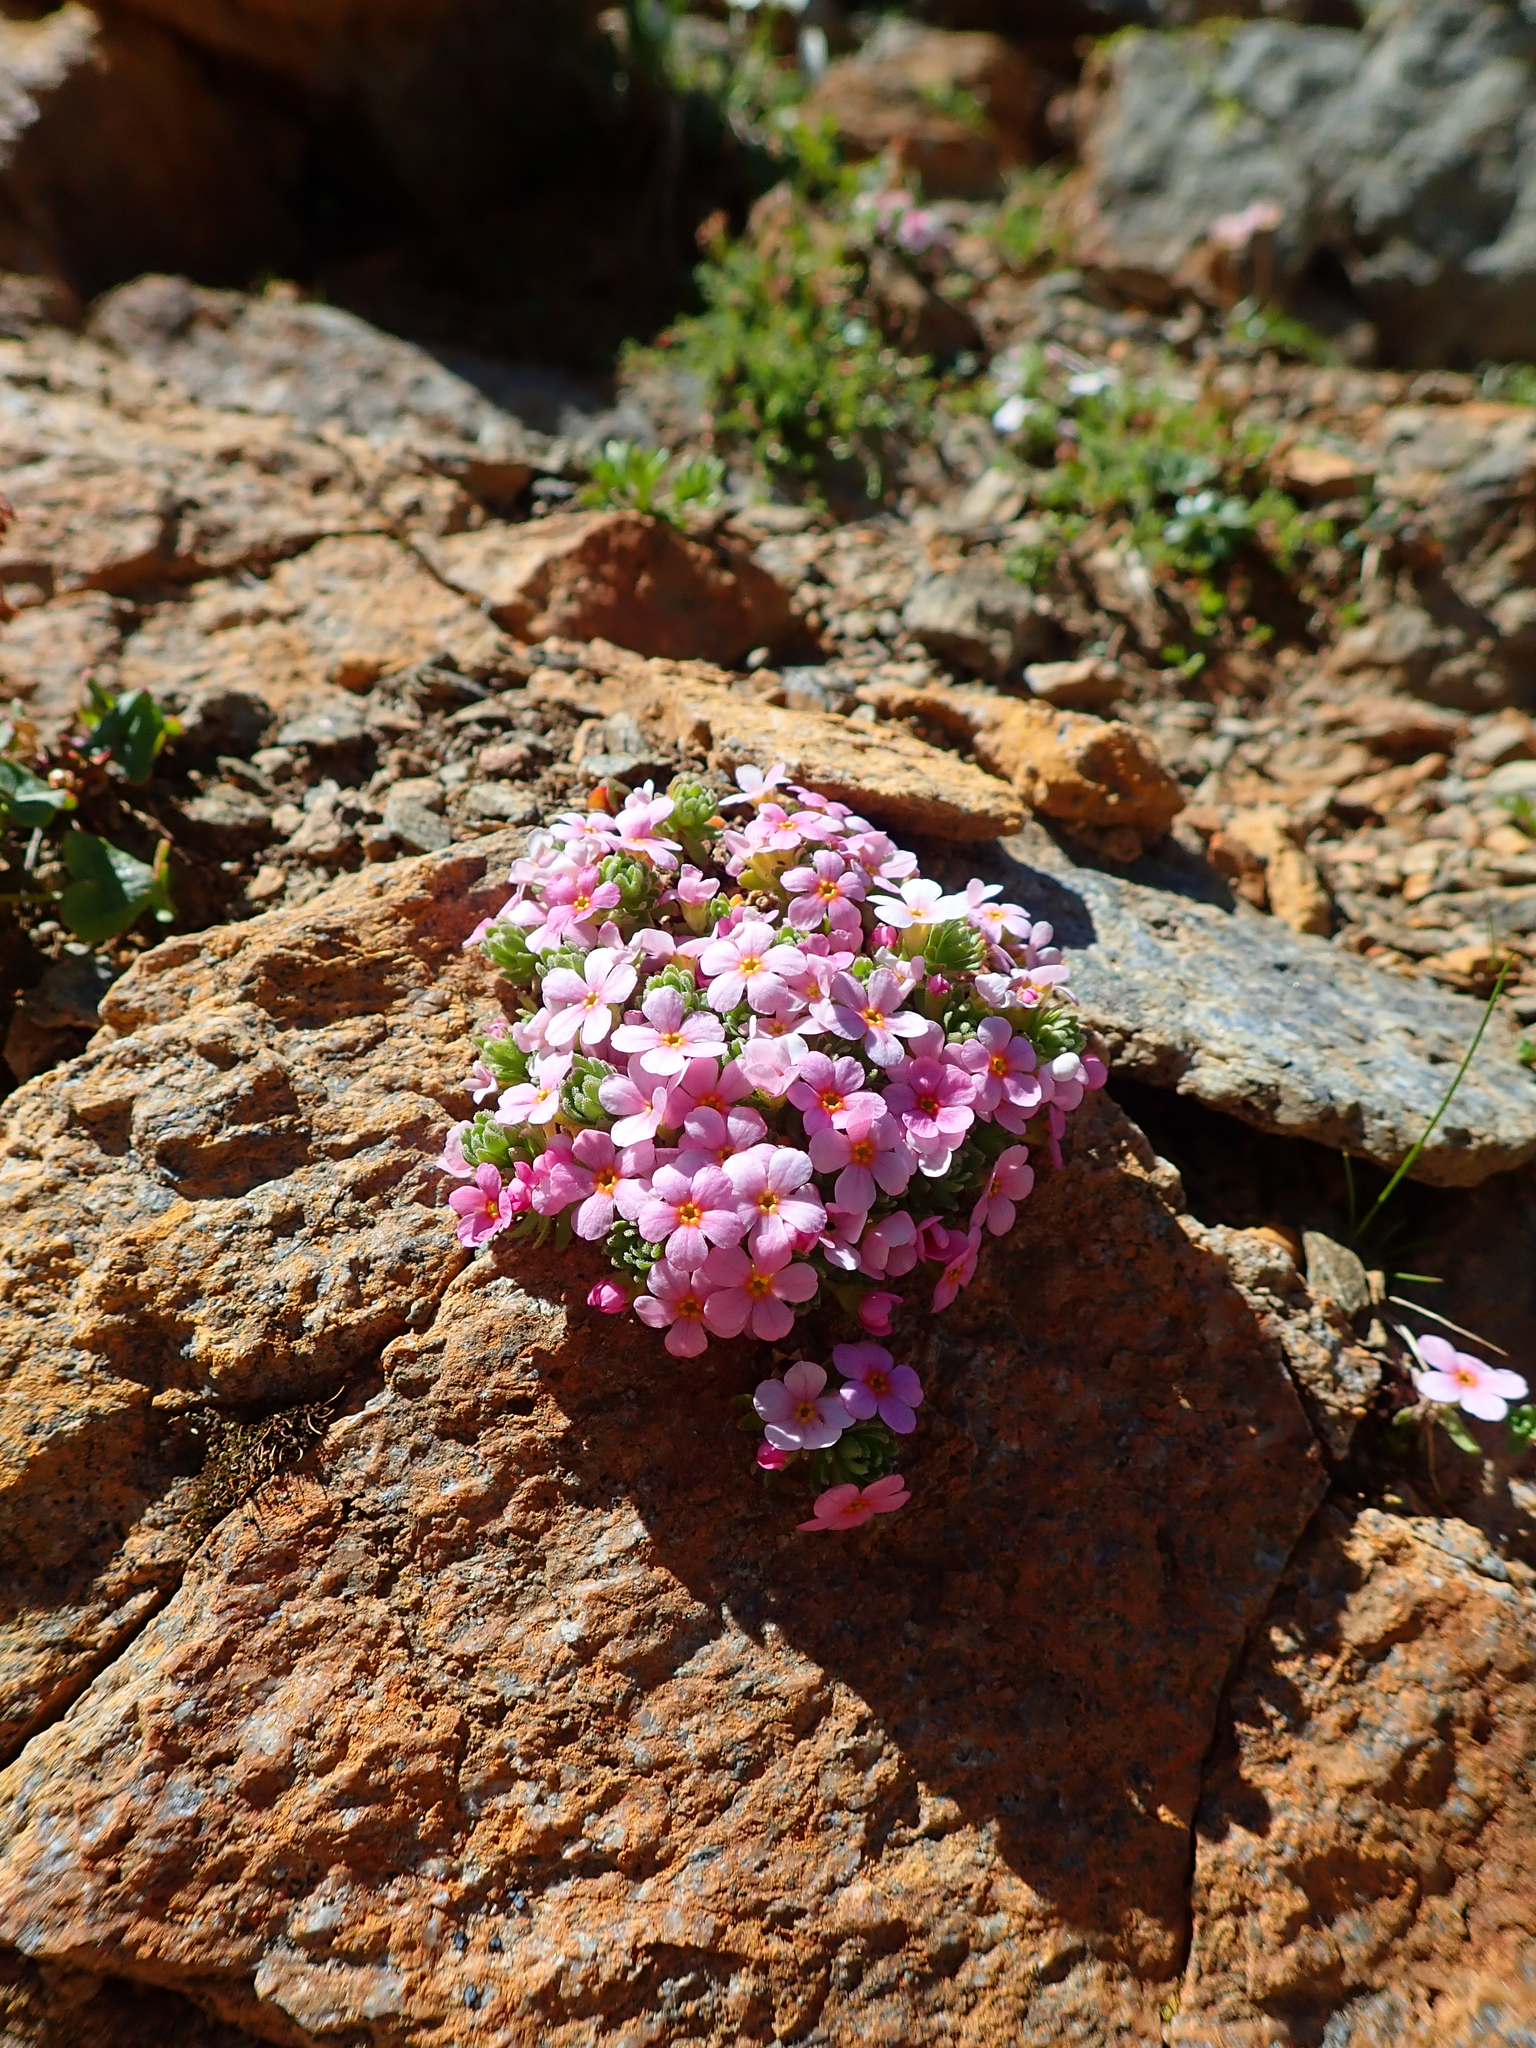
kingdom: Plantae
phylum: Tracheophyta
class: Magnoliopsida
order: Ericales
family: Primulaceae
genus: Androsace
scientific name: Androsace alpina
